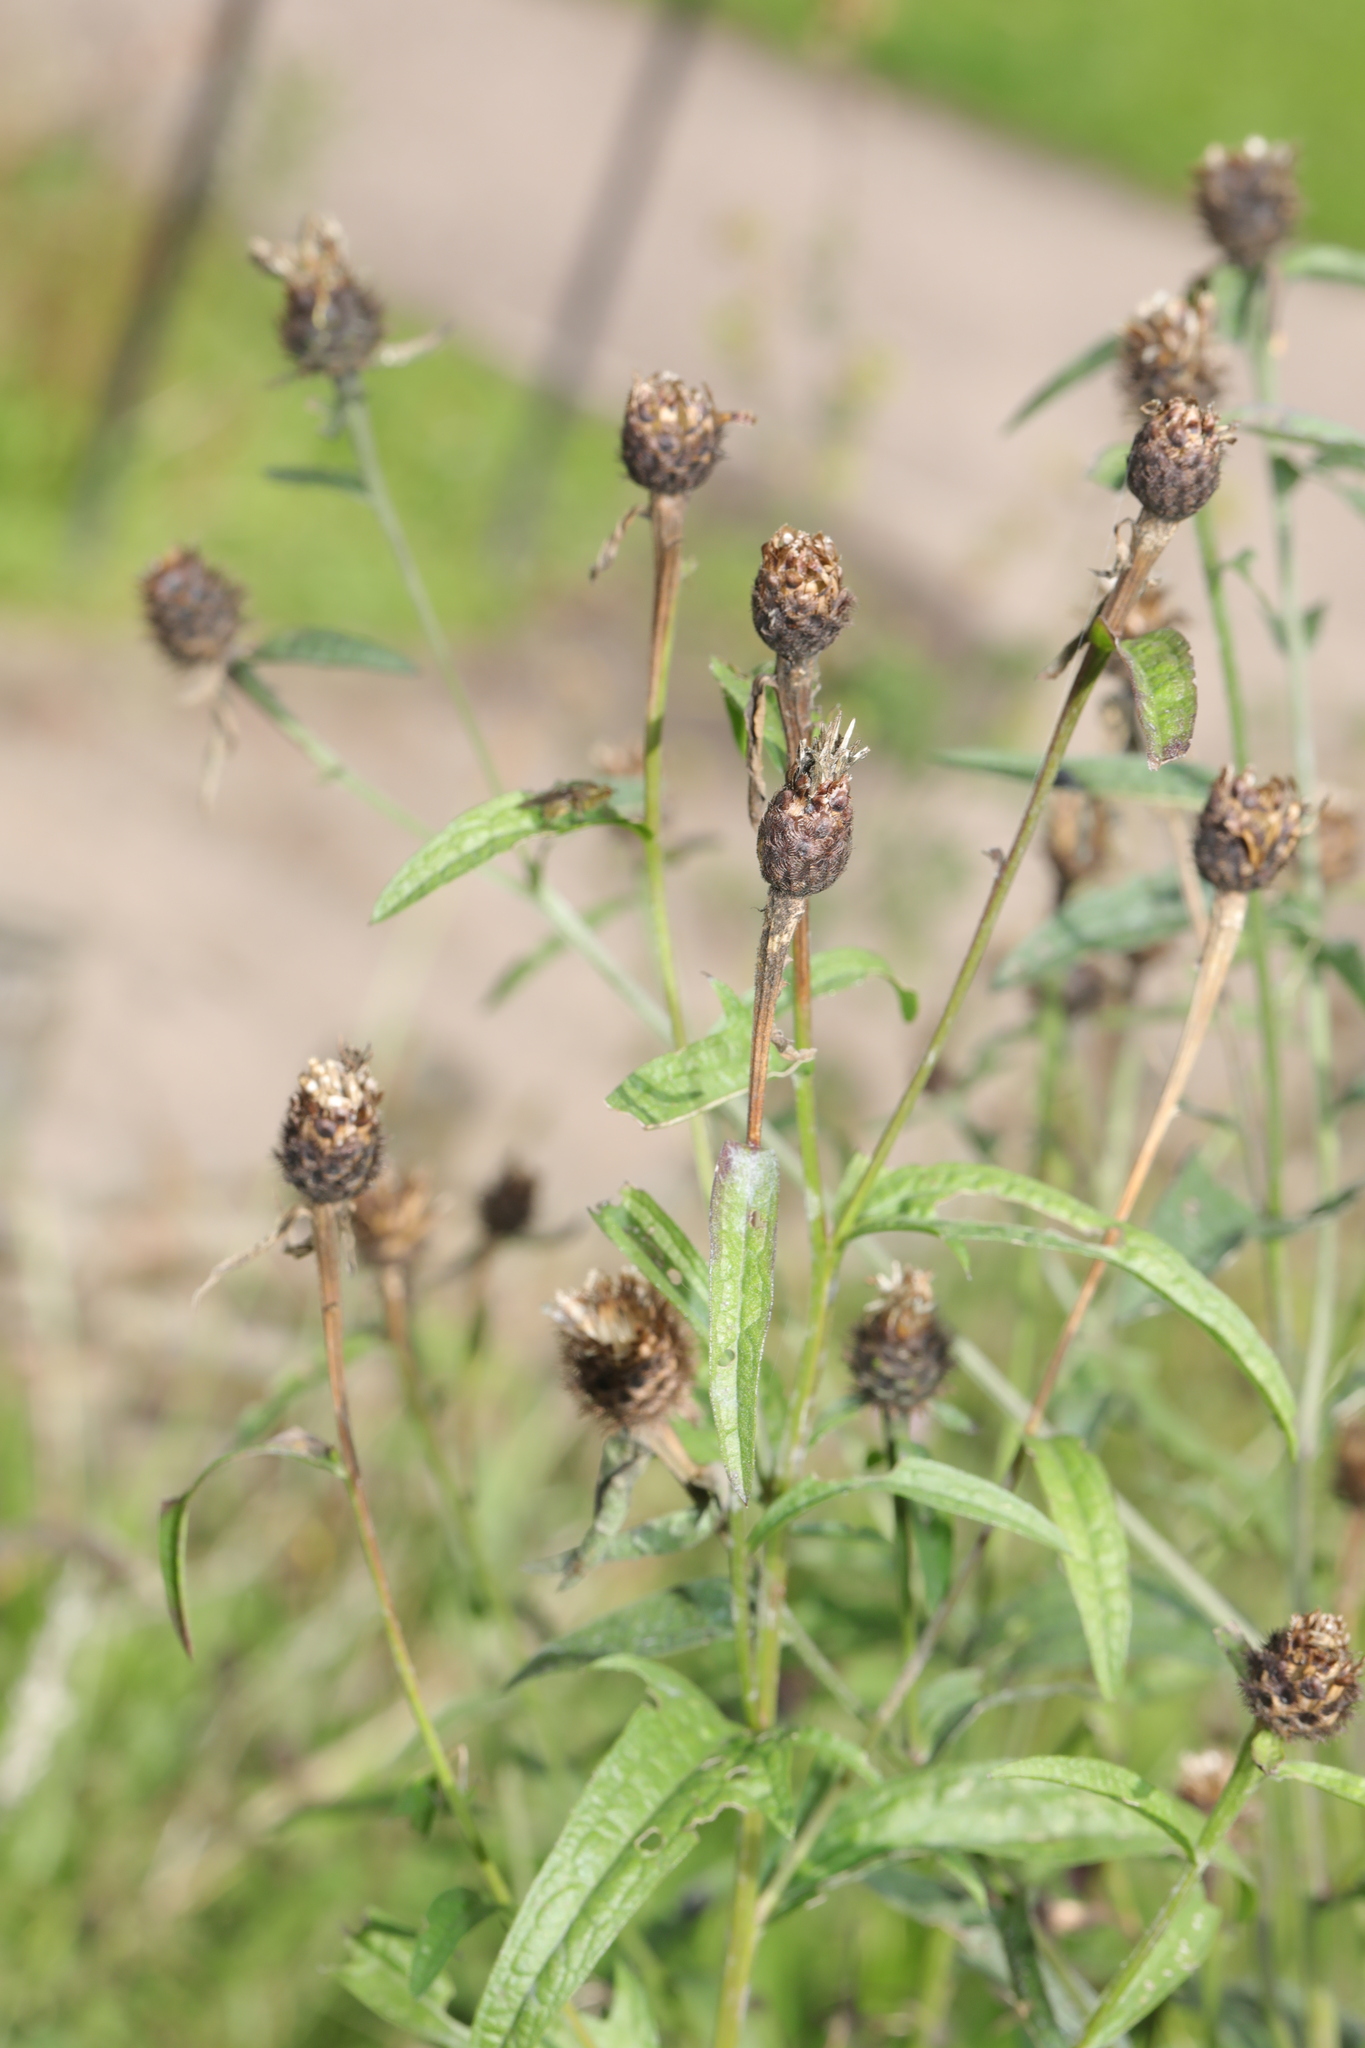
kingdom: Plantae
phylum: Tracheophyta
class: Magnoliopsida
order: Asterales
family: Asteraceae
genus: Centaurea
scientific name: Centaurea nigra
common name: Lesser knapweed
